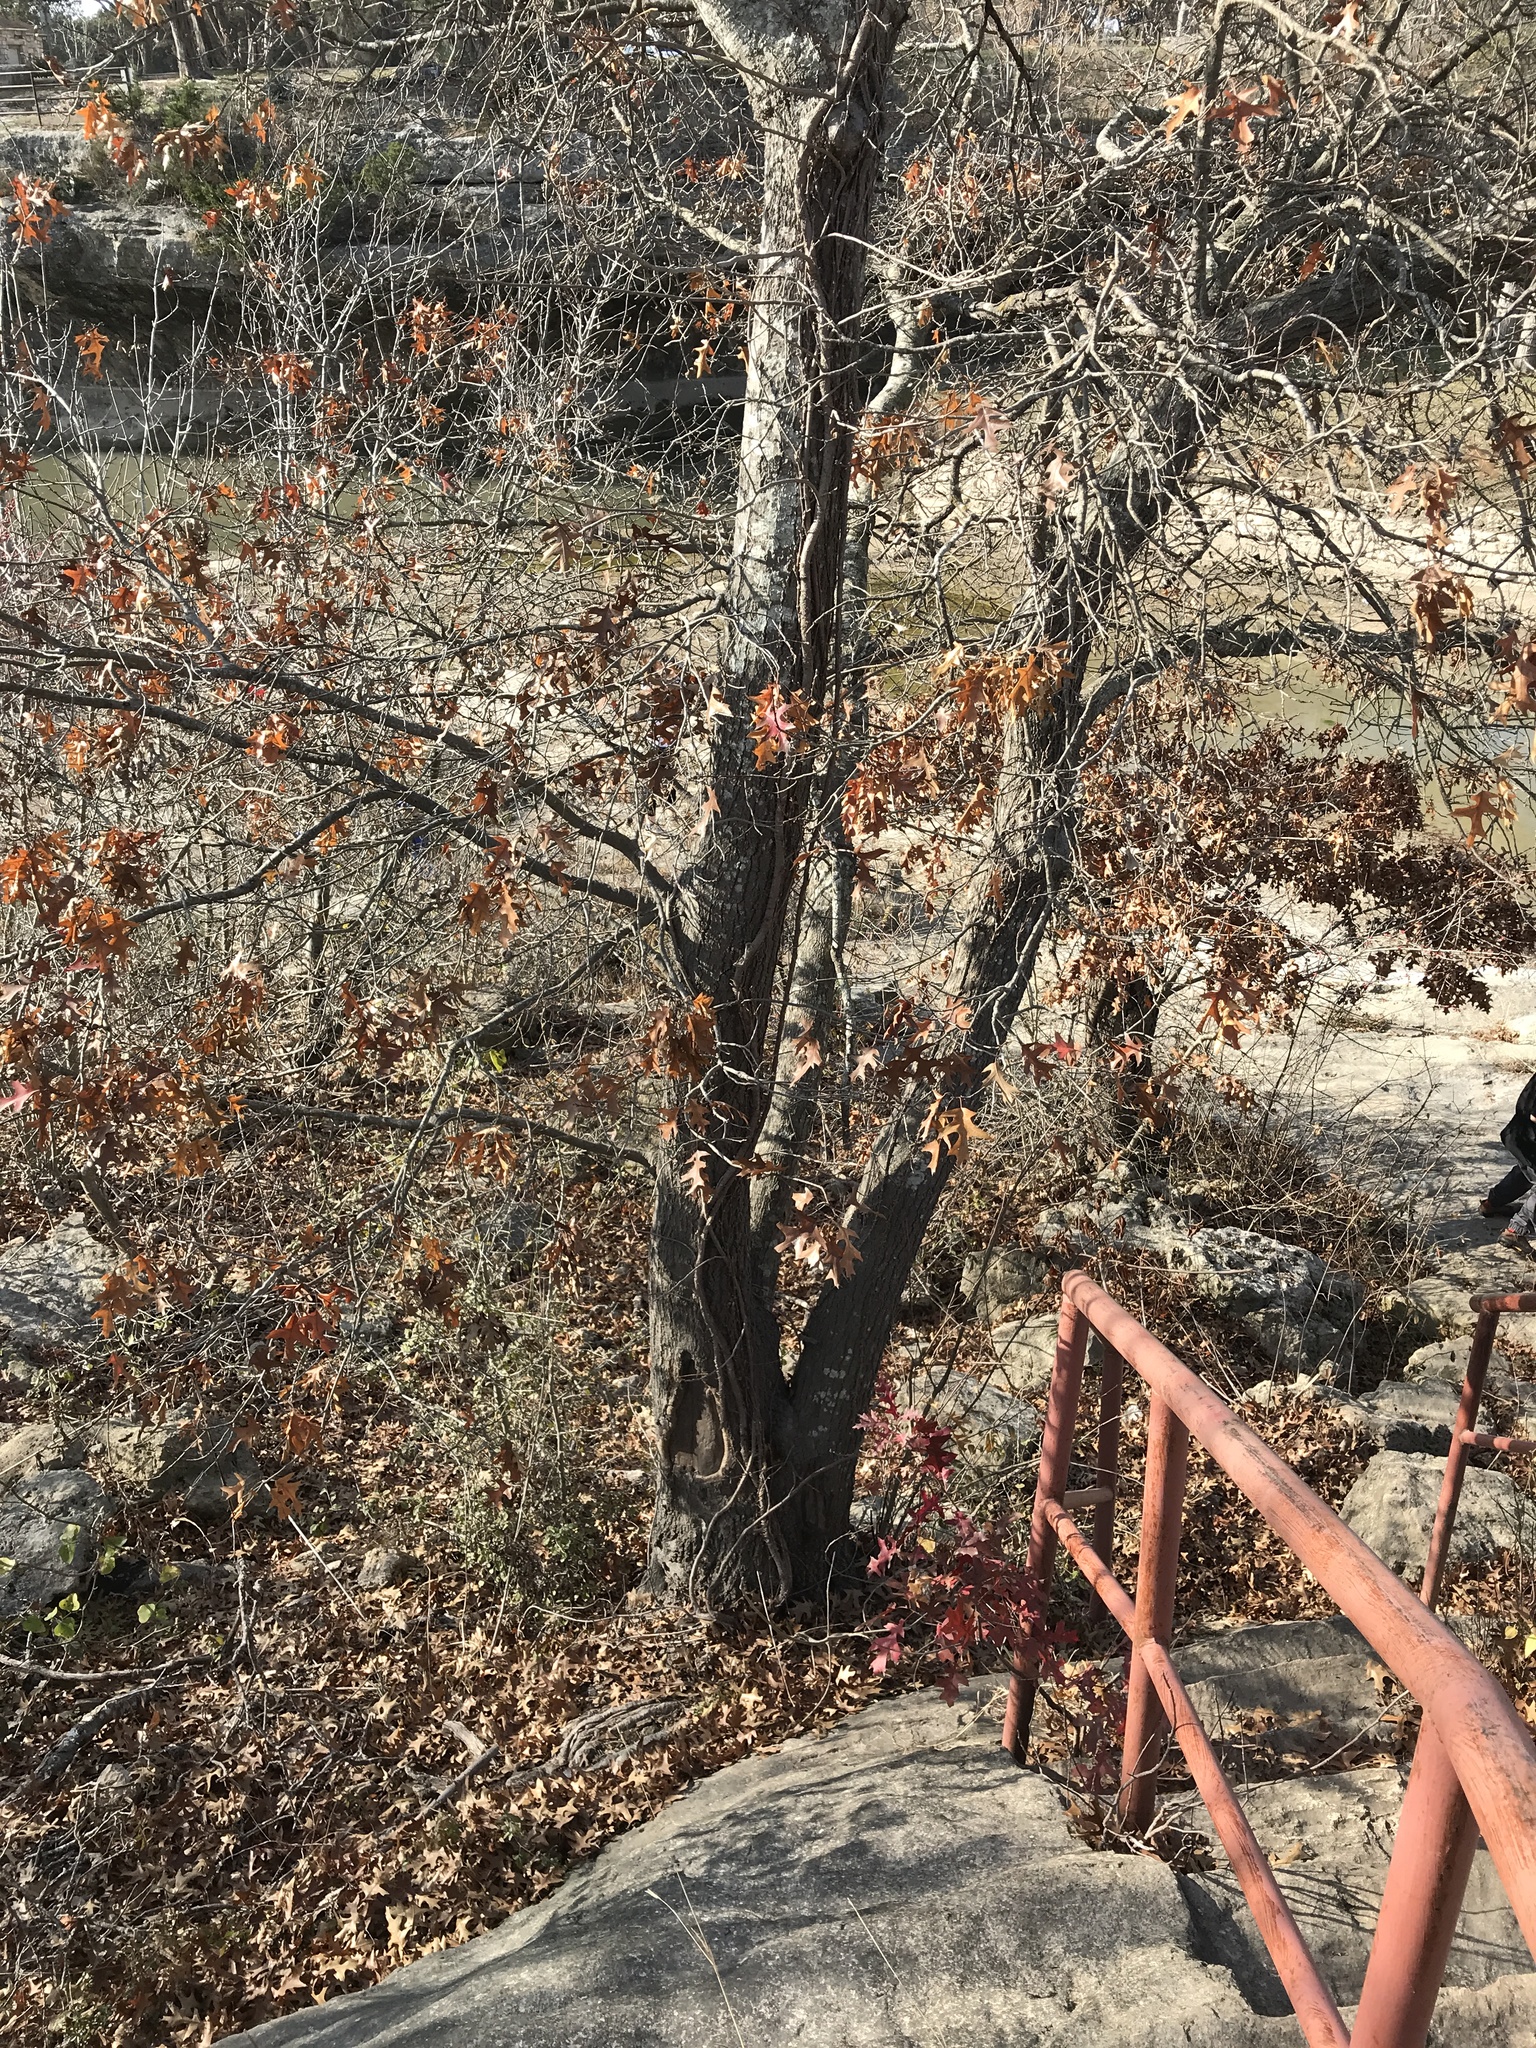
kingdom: Plantae
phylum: Tracheophyta
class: Magnoliopsida
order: Fagales
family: Fagaceae
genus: Quercus
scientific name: Quercus buckleyi
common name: Buckley oak
